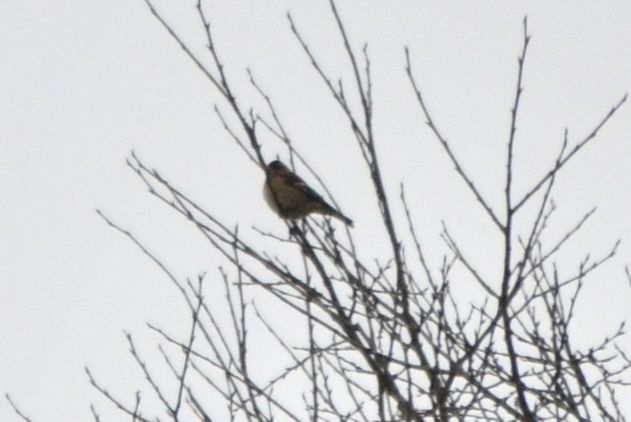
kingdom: Animalia
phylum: Chordata
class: Aves
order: Passeriformes
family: Fringillidae
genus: Fringilla
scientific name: Fringilla coelebs
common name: Common chaffinch
